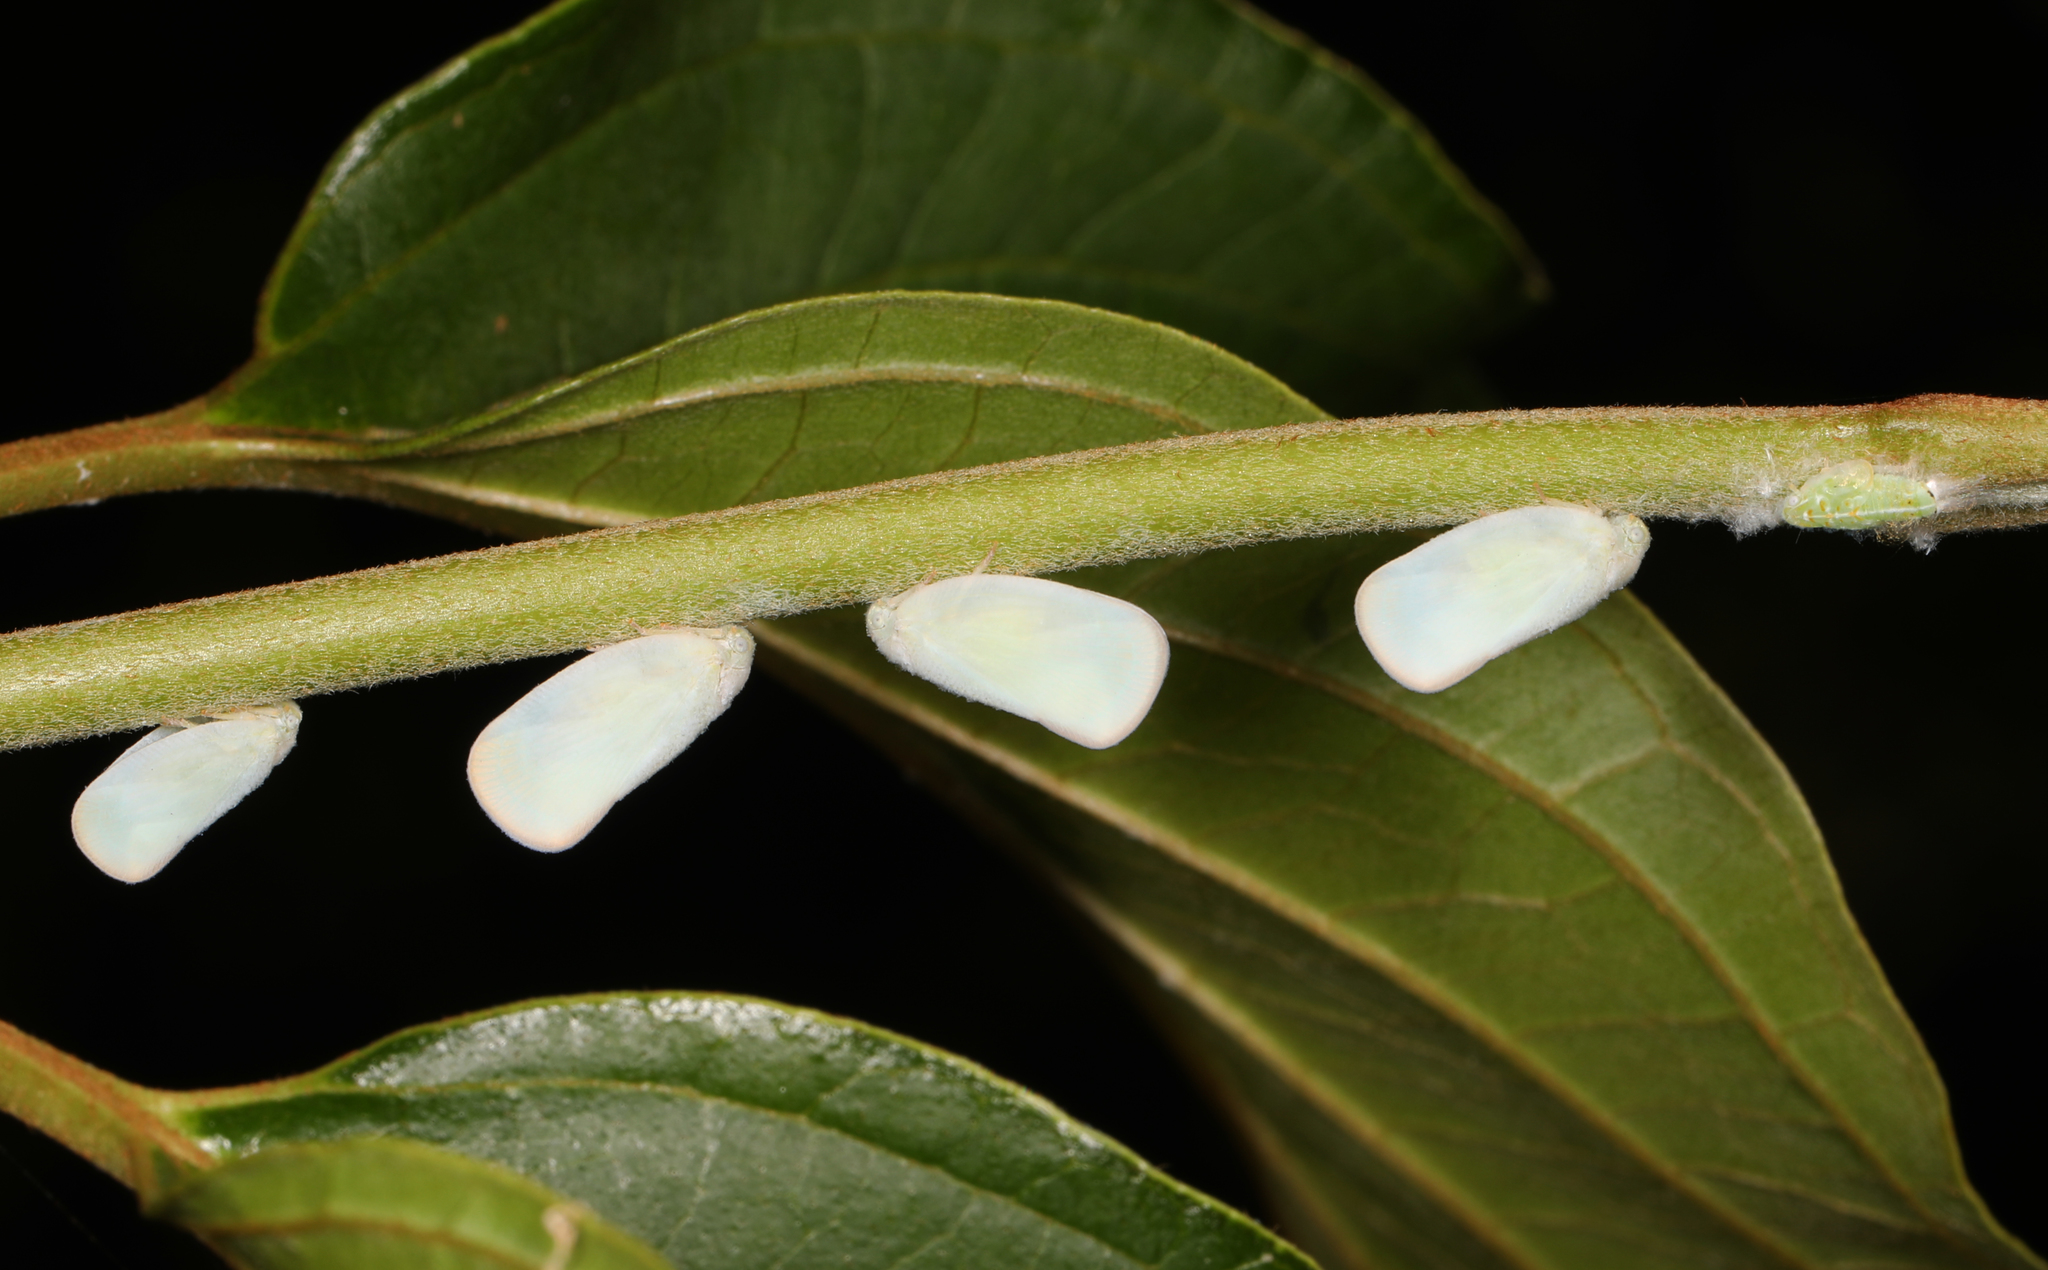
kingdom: Animalia
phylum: Arthropoda
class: Insecta
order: Hemiptera
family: Flatidae
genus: Ormenoides
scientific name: Ormenoides venusta
